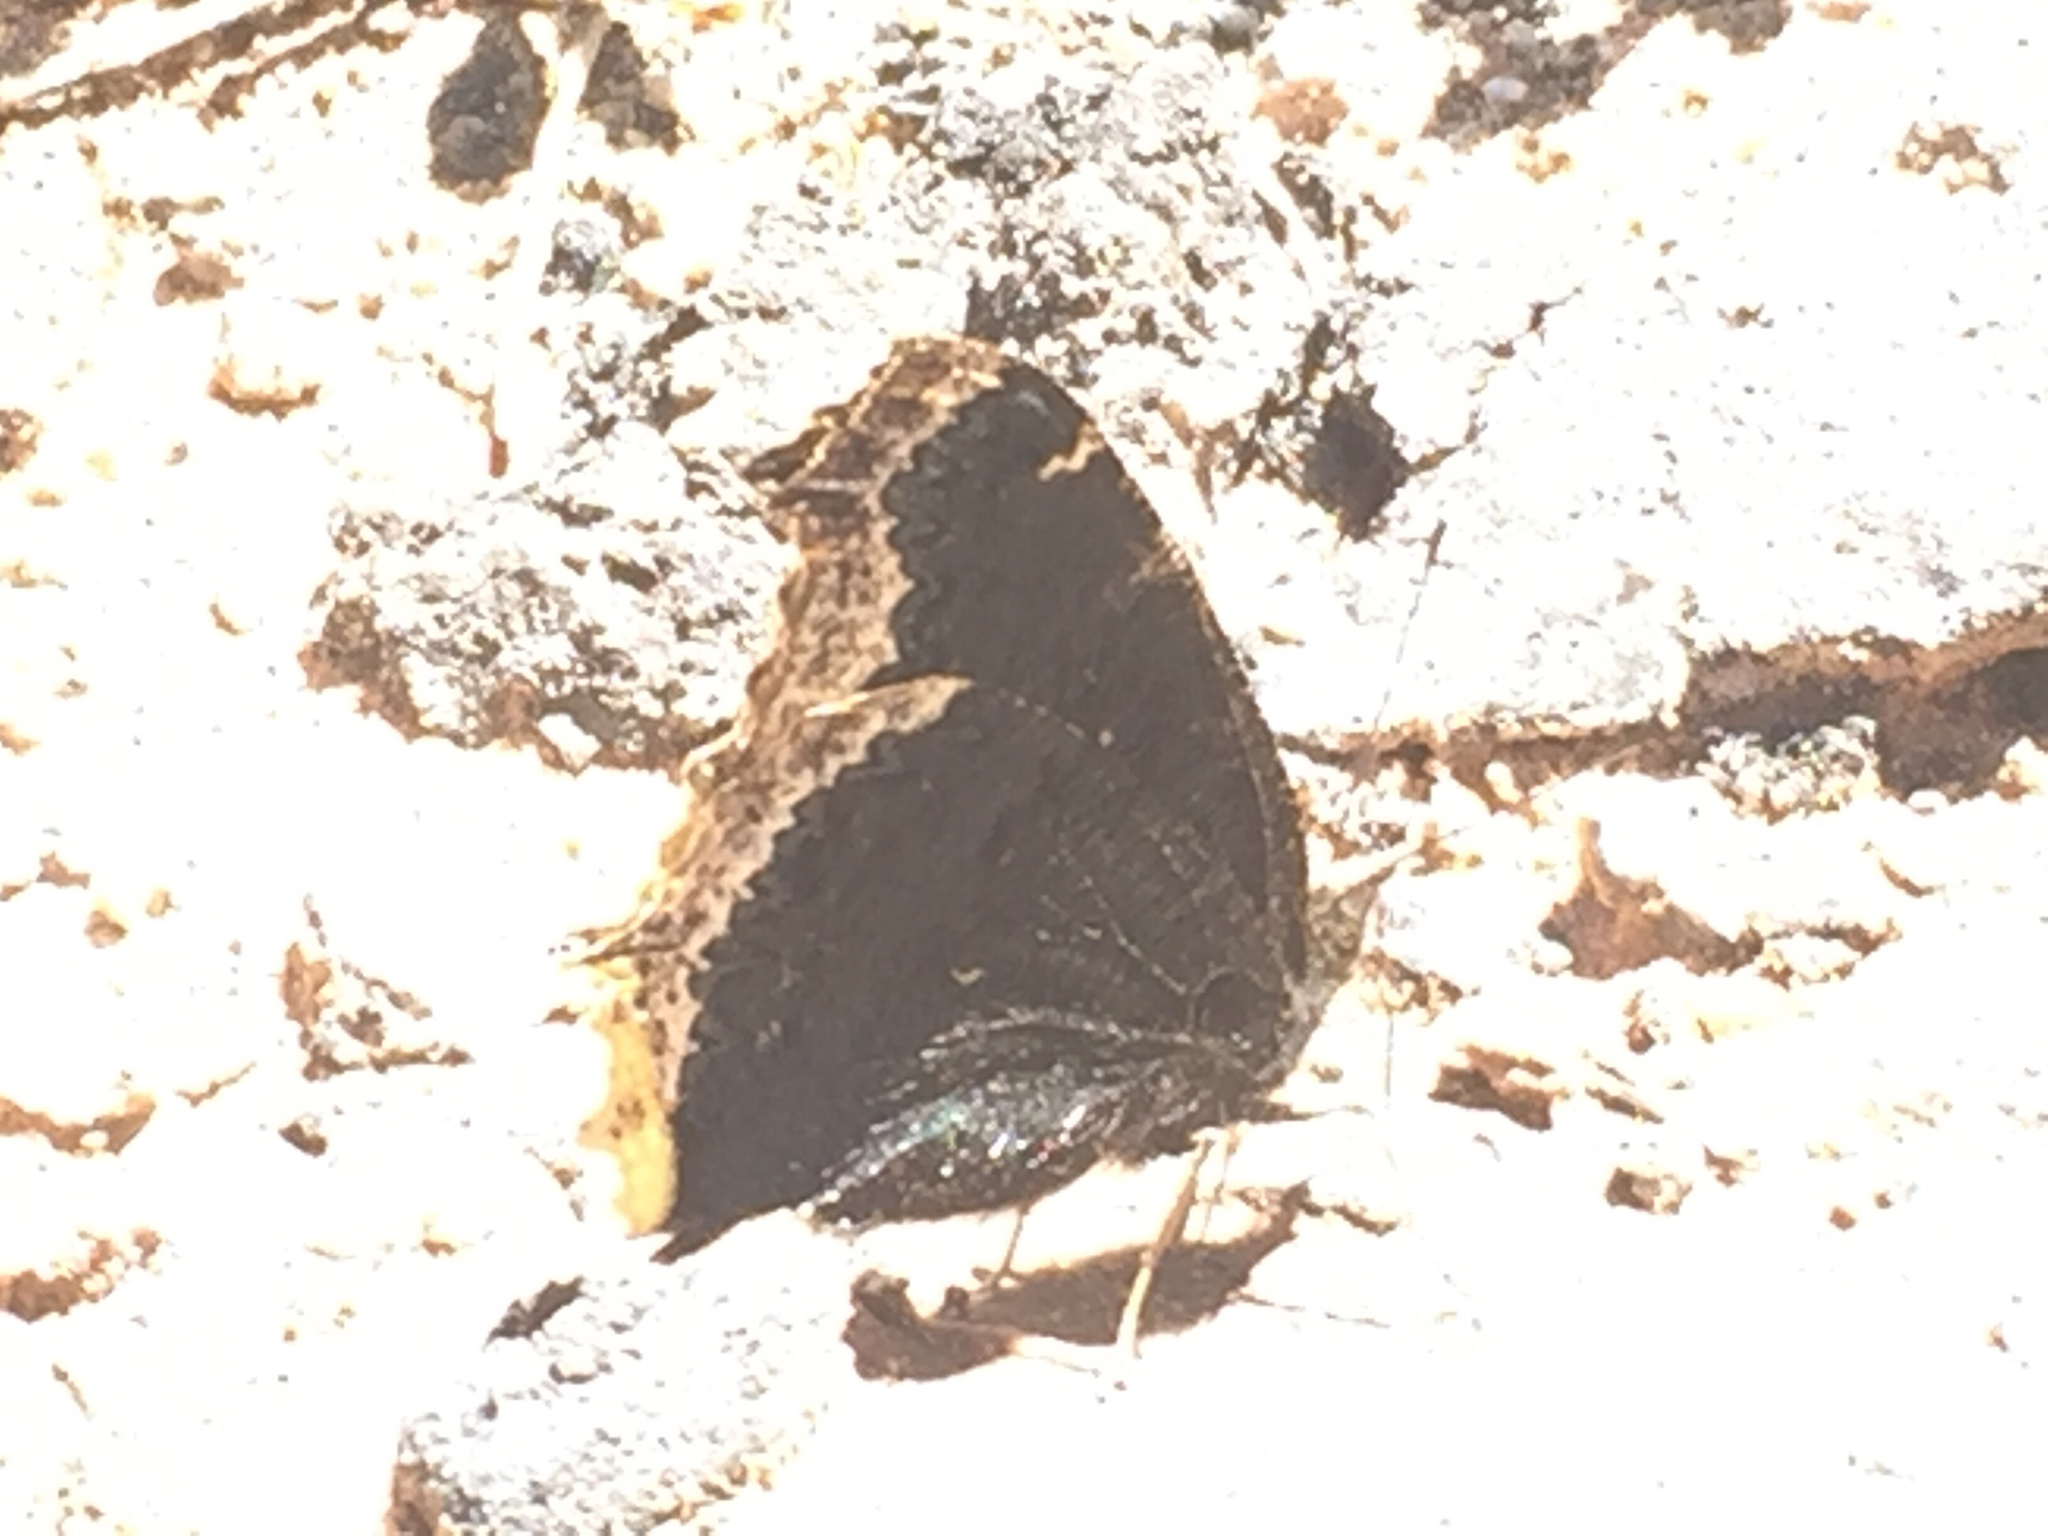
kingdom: Animalia
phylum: Arthropoda
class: Insecta
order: Lepidoptera
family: Nymphalidae
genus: Nymphalis
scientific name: Nymphalis antiopa
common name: Camberwell beauty
